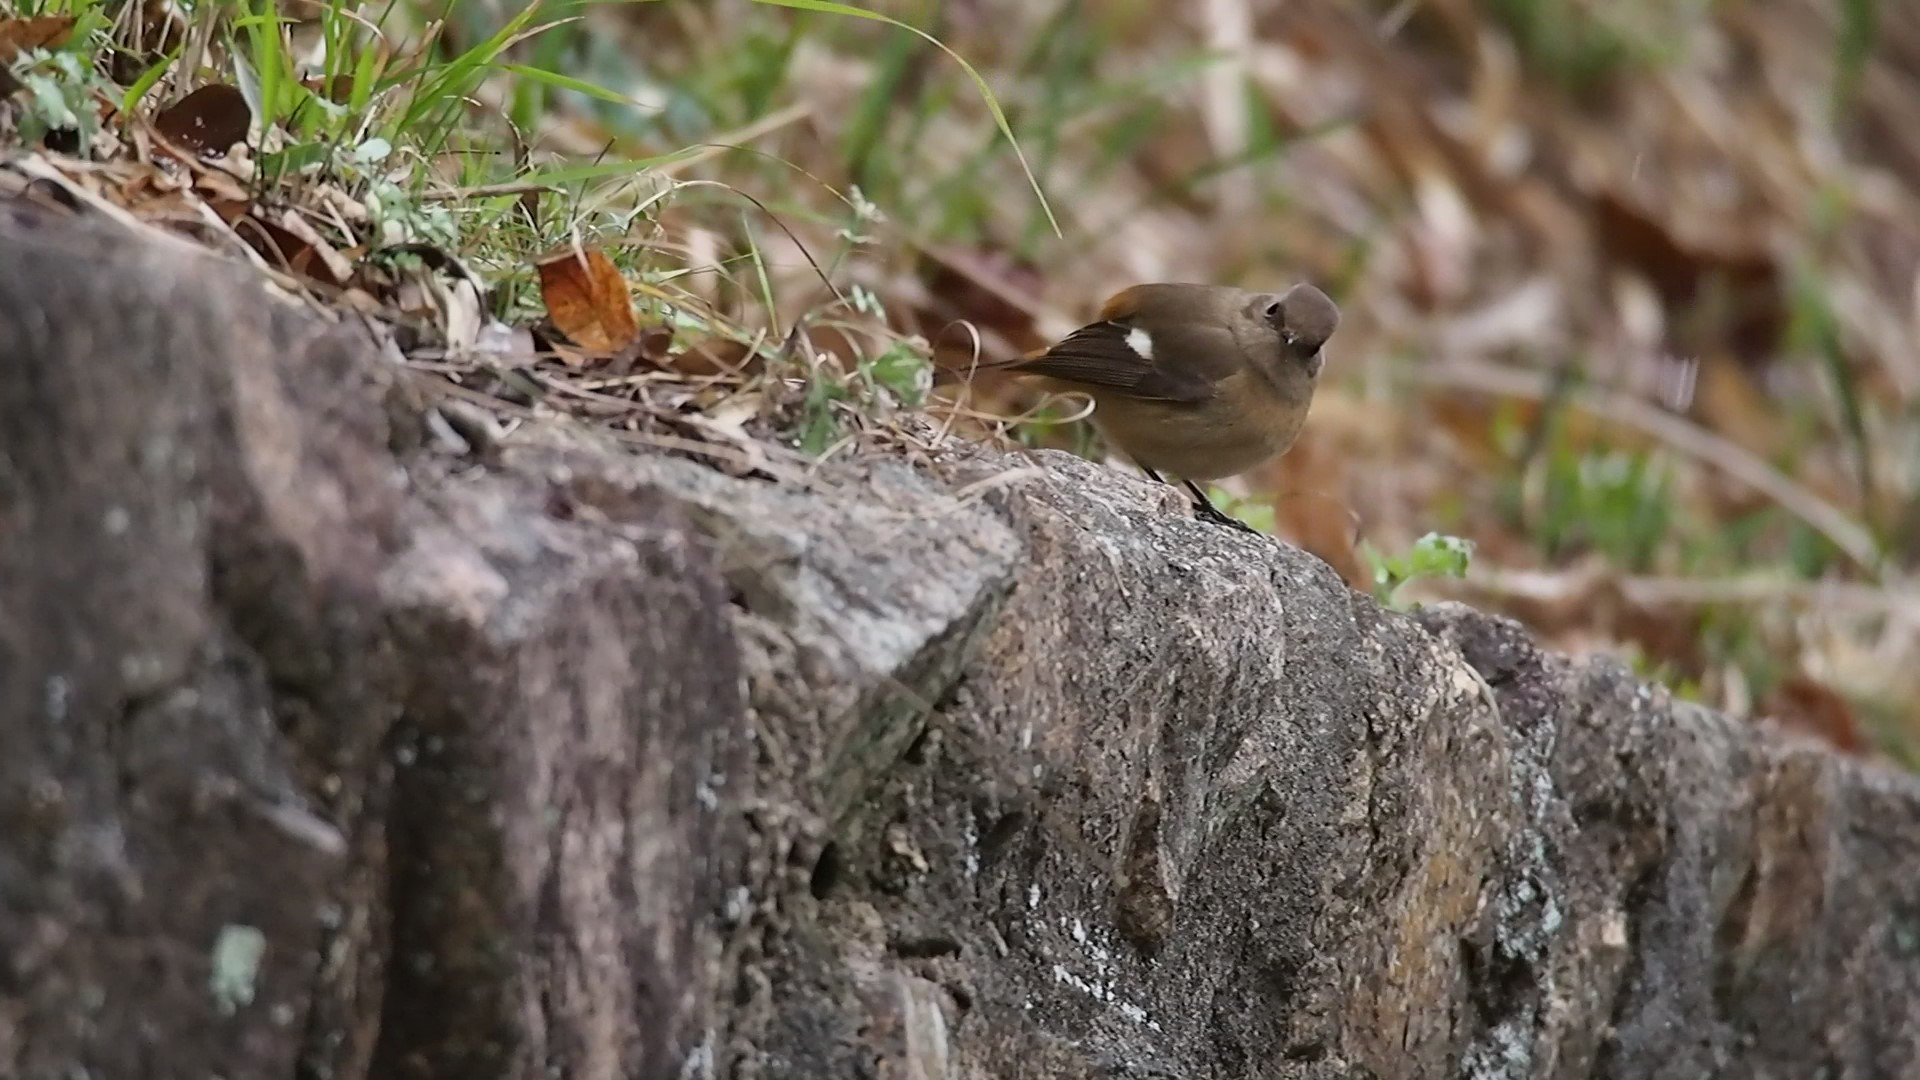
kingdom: Animalia
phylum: Chordata
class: Aves
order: Passeriformes
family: Muscicapidae
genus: Phoenicurus
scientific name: Phoenicurus auroreus
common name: Daurian redstart
